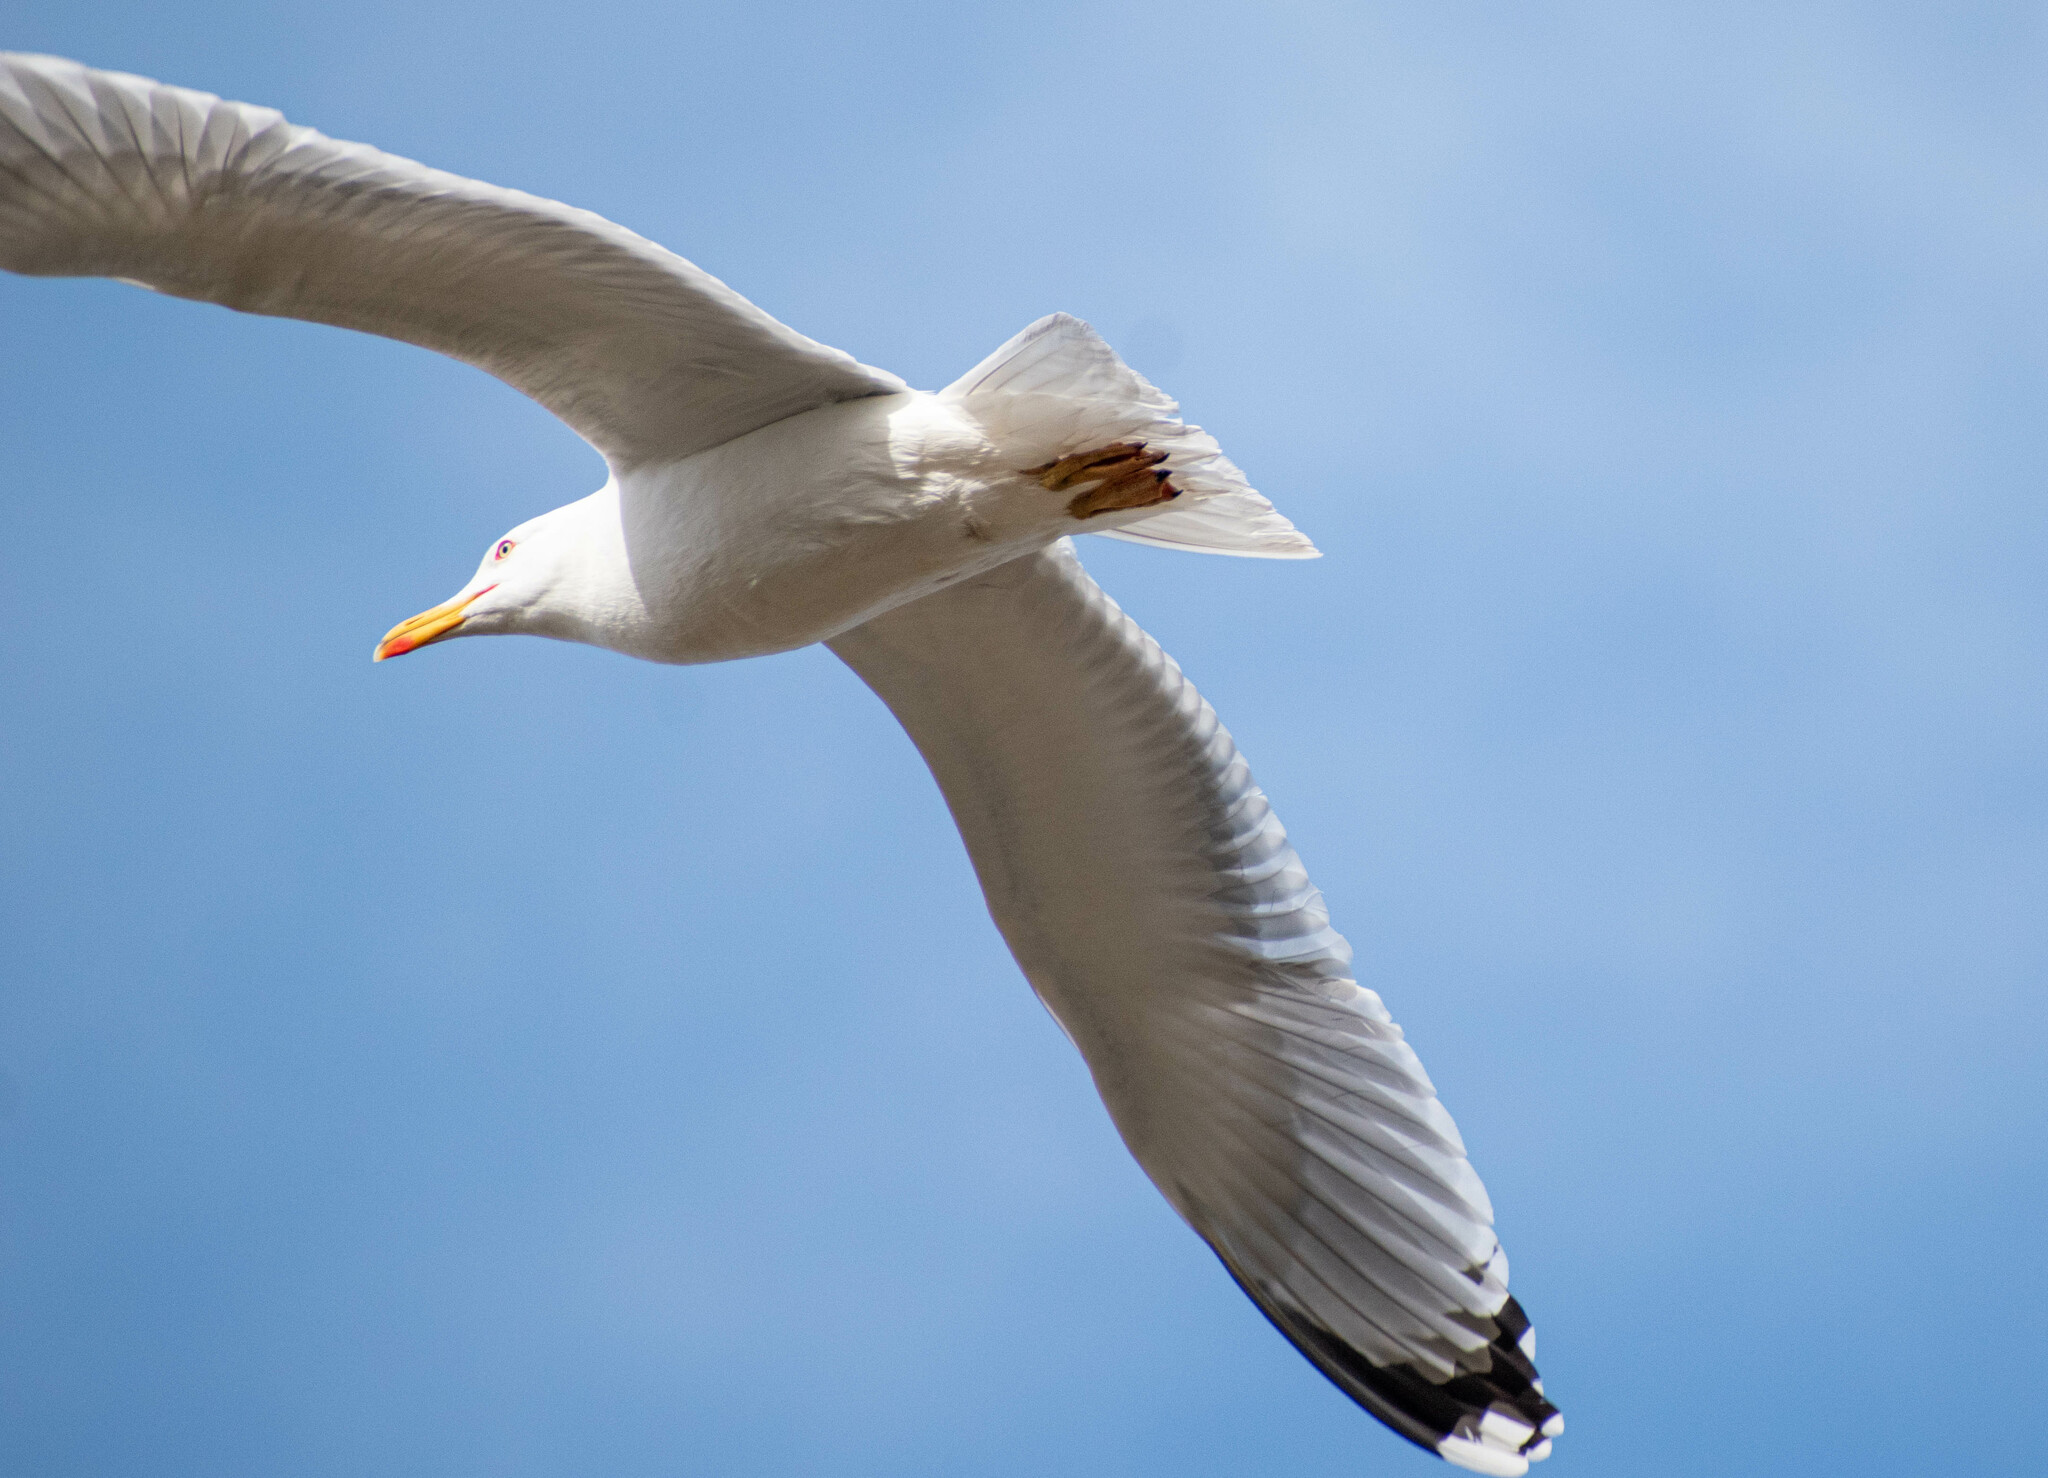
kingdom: Animalia
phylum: Chordata
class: Aves
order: Charadriiformes
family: Laridae
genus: Larus
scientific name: Larus argentatus
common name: Herring gull
